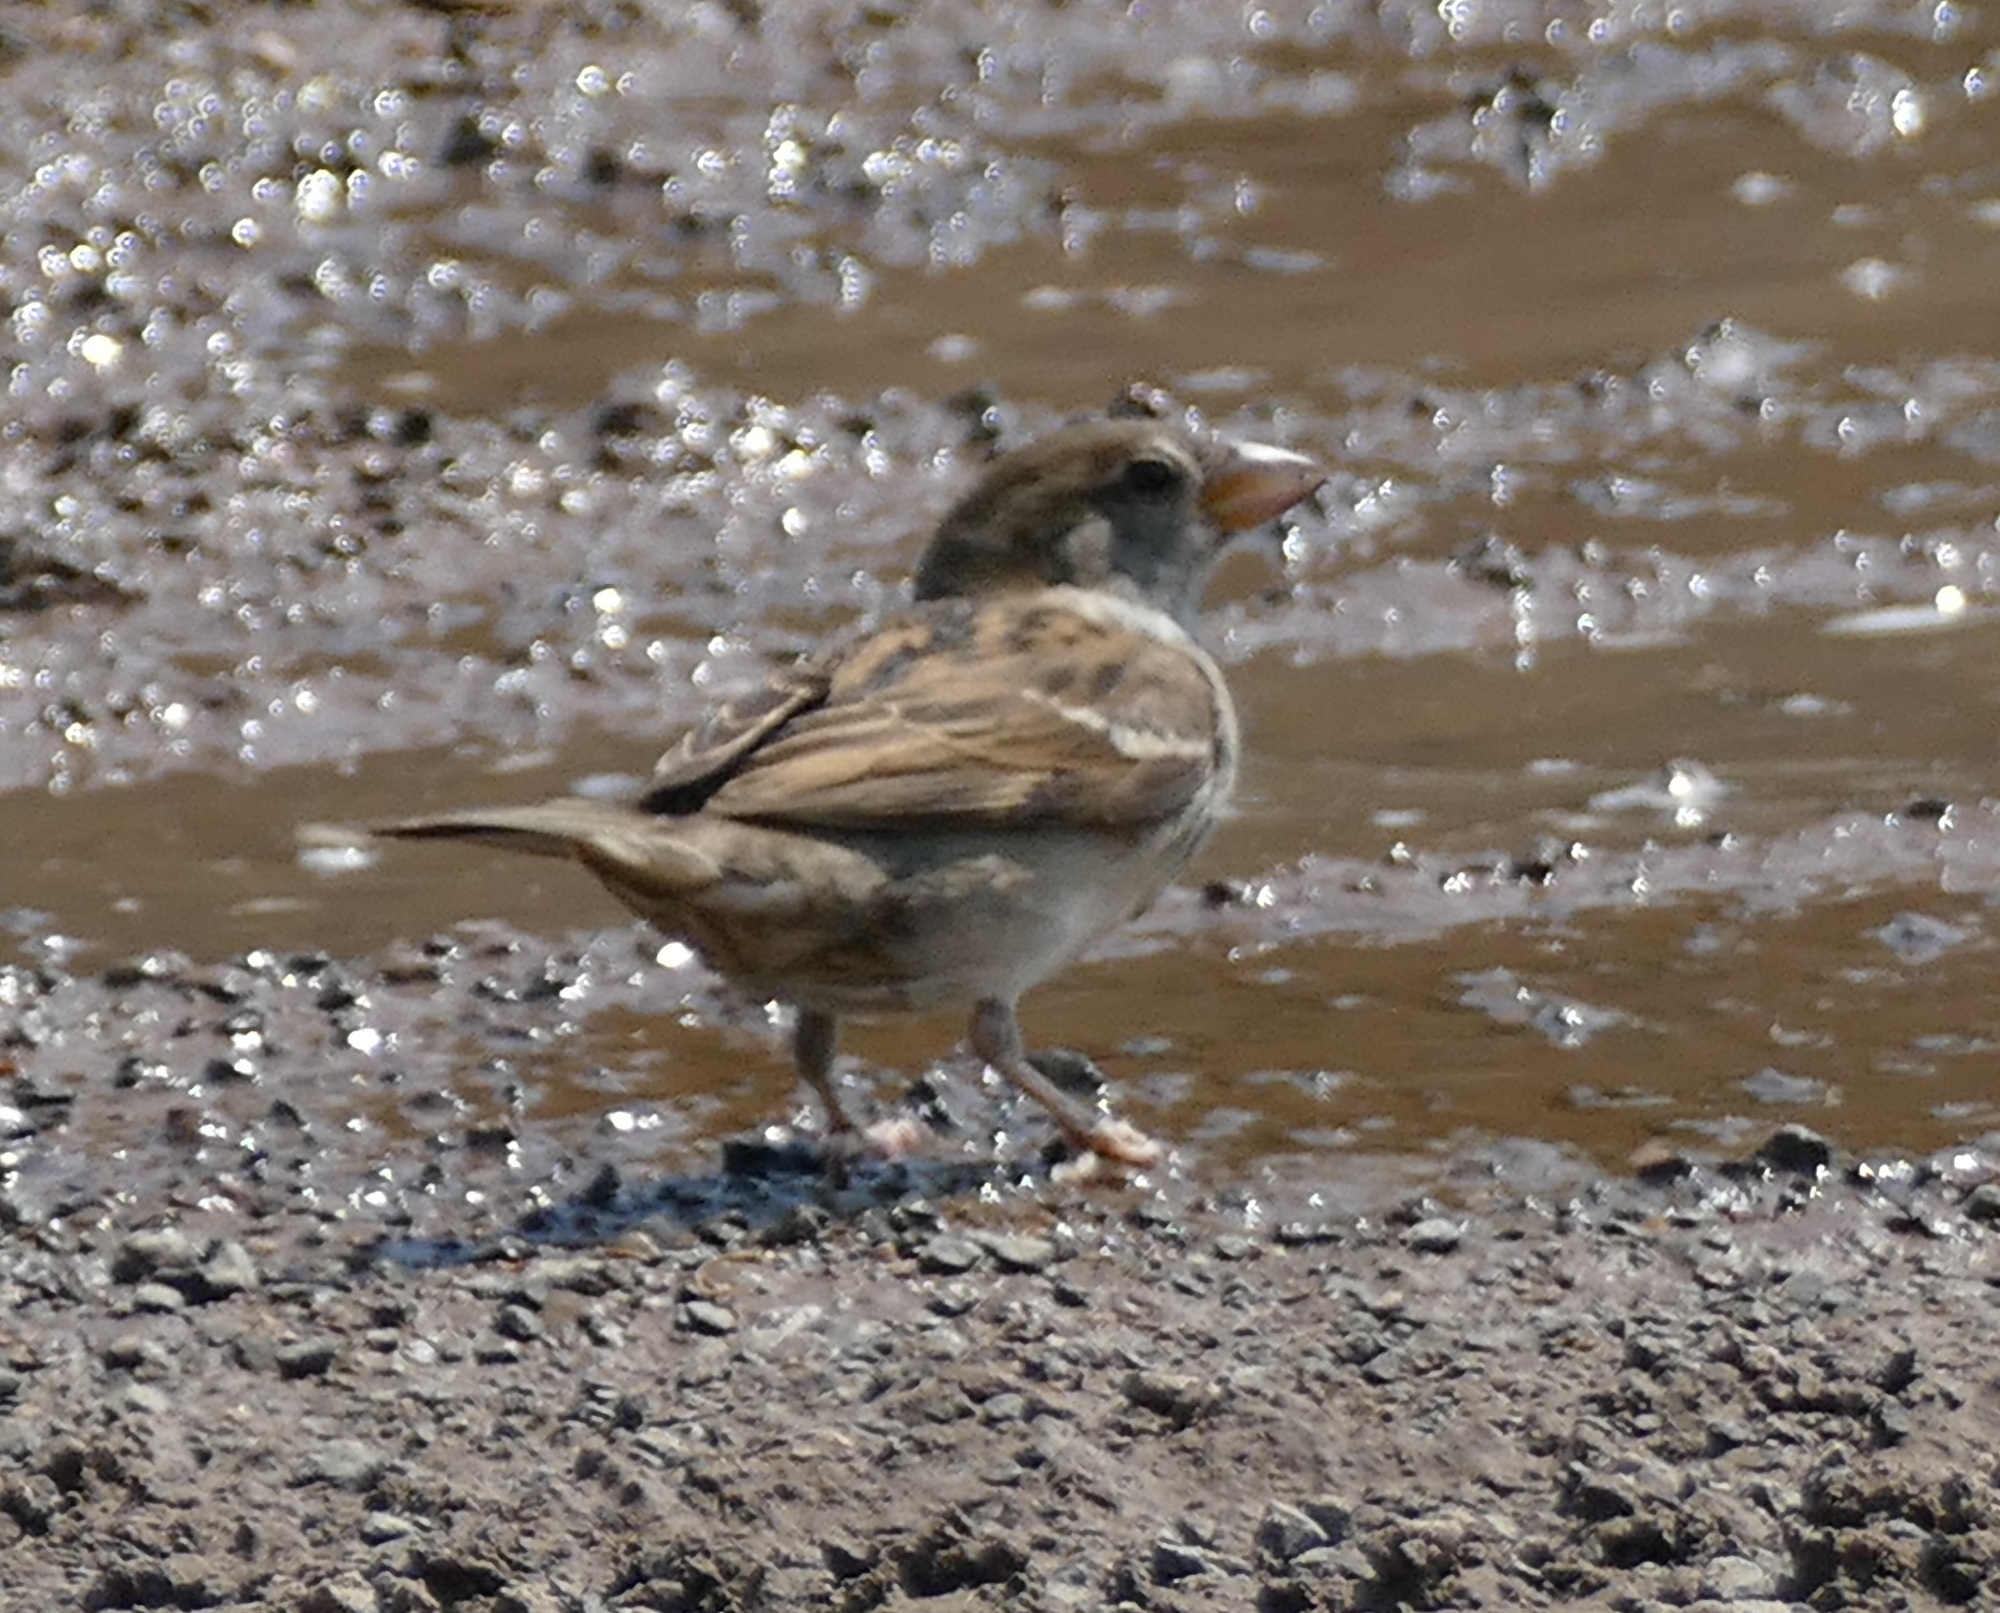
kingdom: Animalia
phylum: Chordata
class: Aves
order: Passeriformes
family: Passeridae
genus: Passer
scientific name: Passer domesticus
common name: House sparrow
